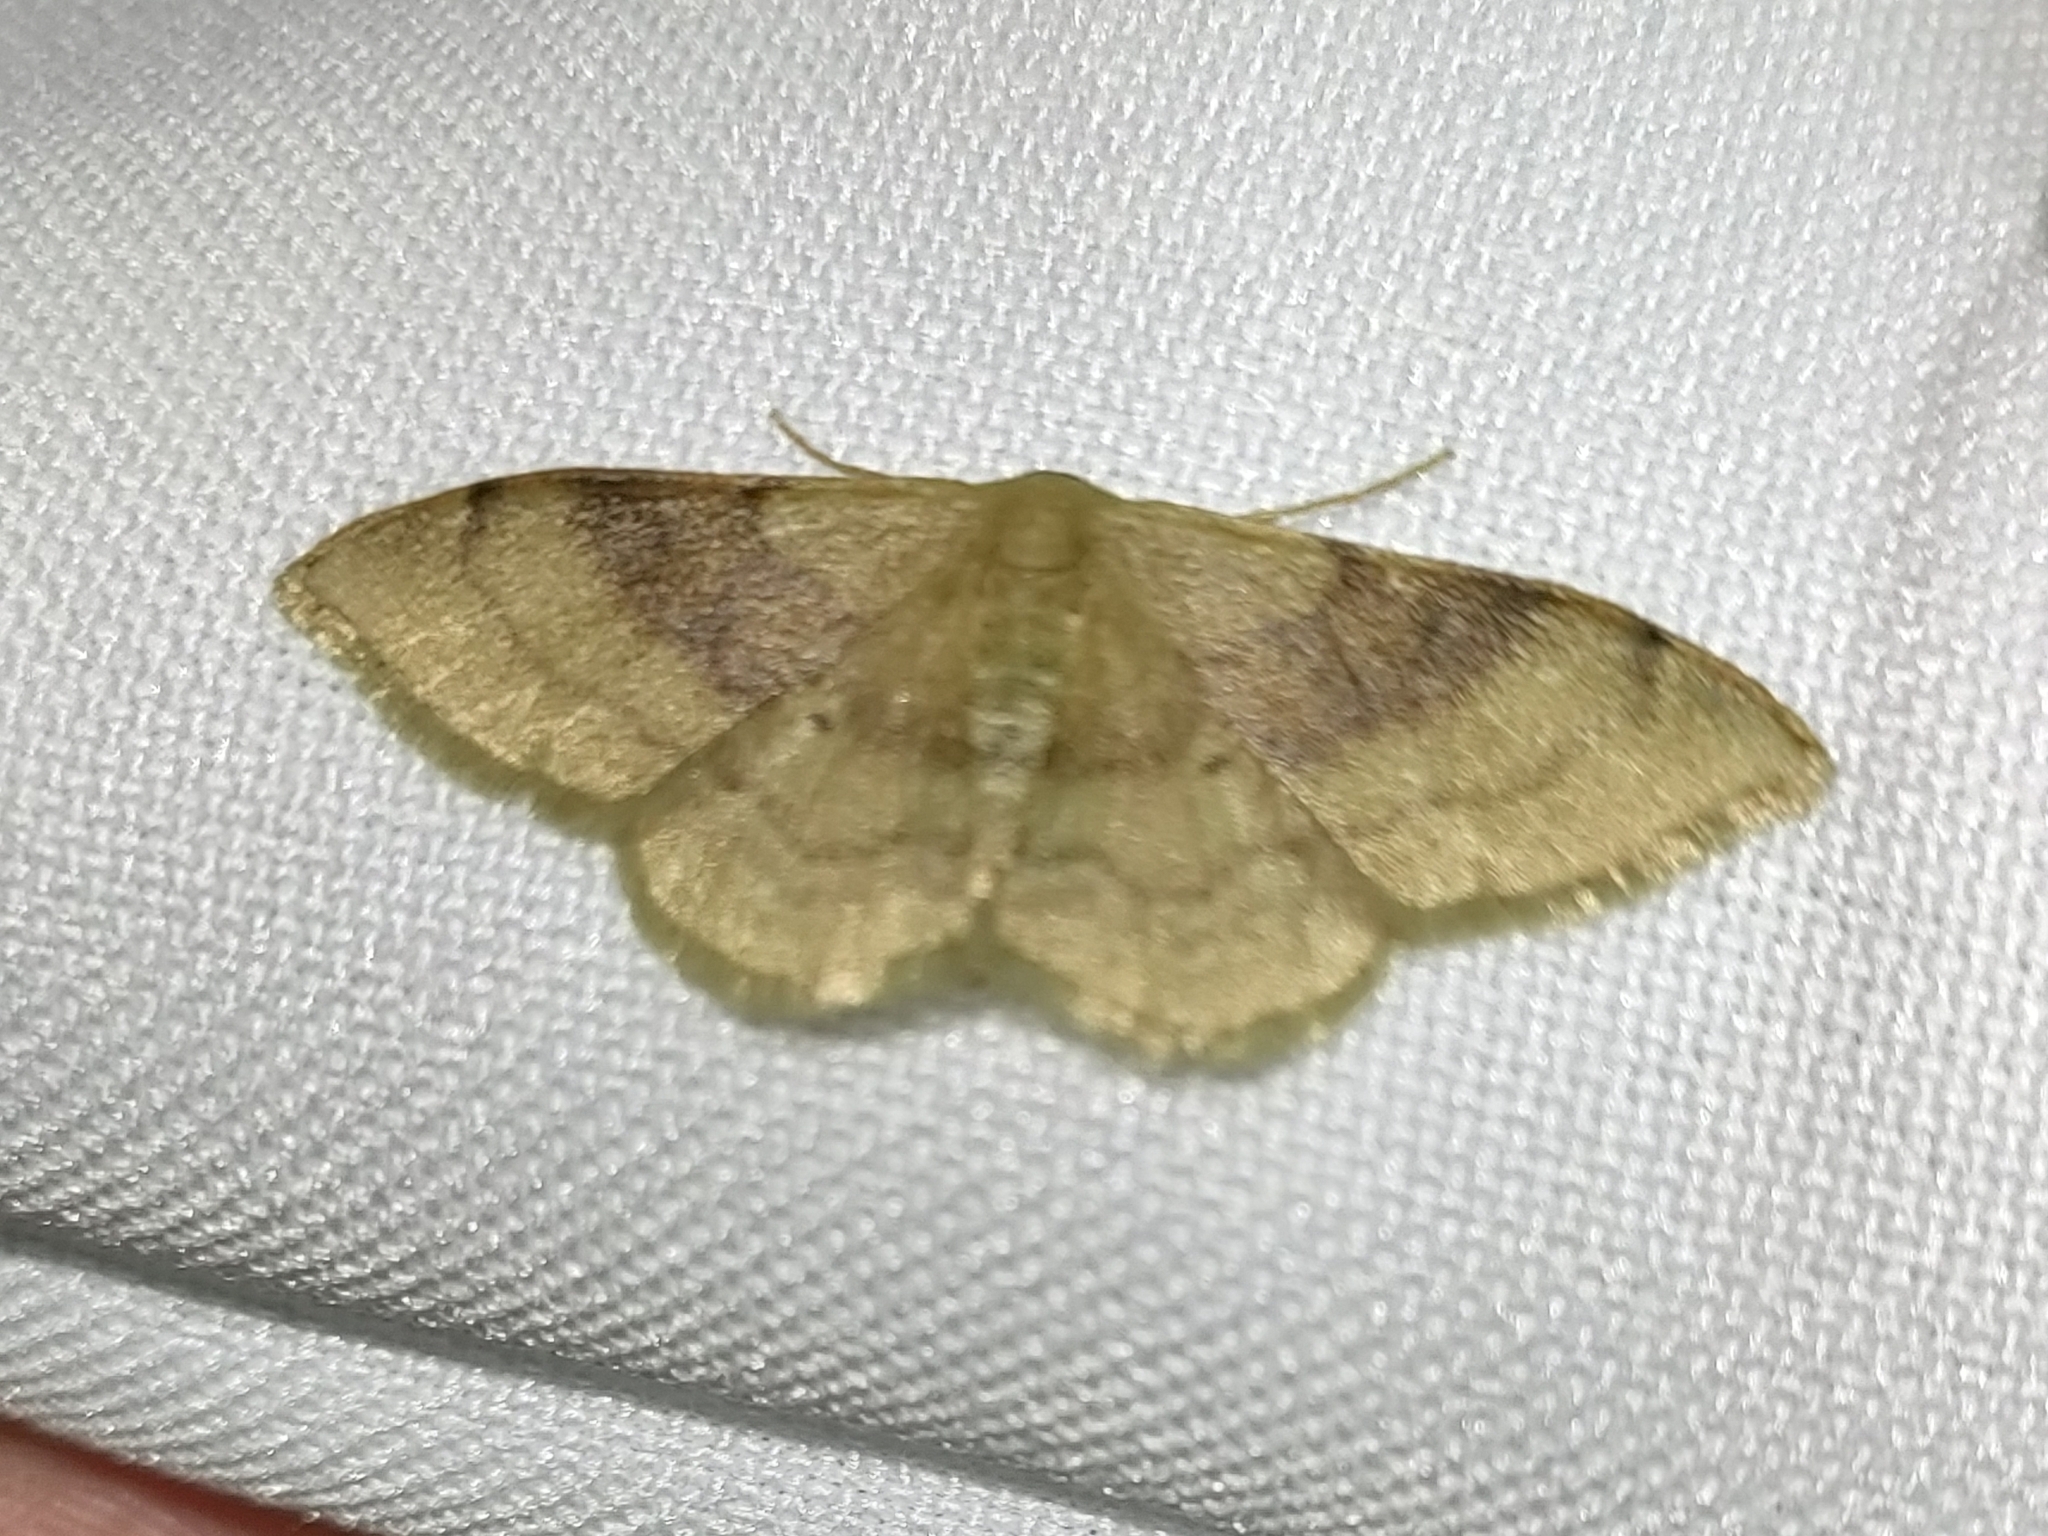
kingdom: Animalia
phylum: Arthropoda
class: Insecta
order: Lepidoptera
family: Geometridae
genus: Idaea
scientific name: Idaea degeneraria
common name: Portland ribbon wave
